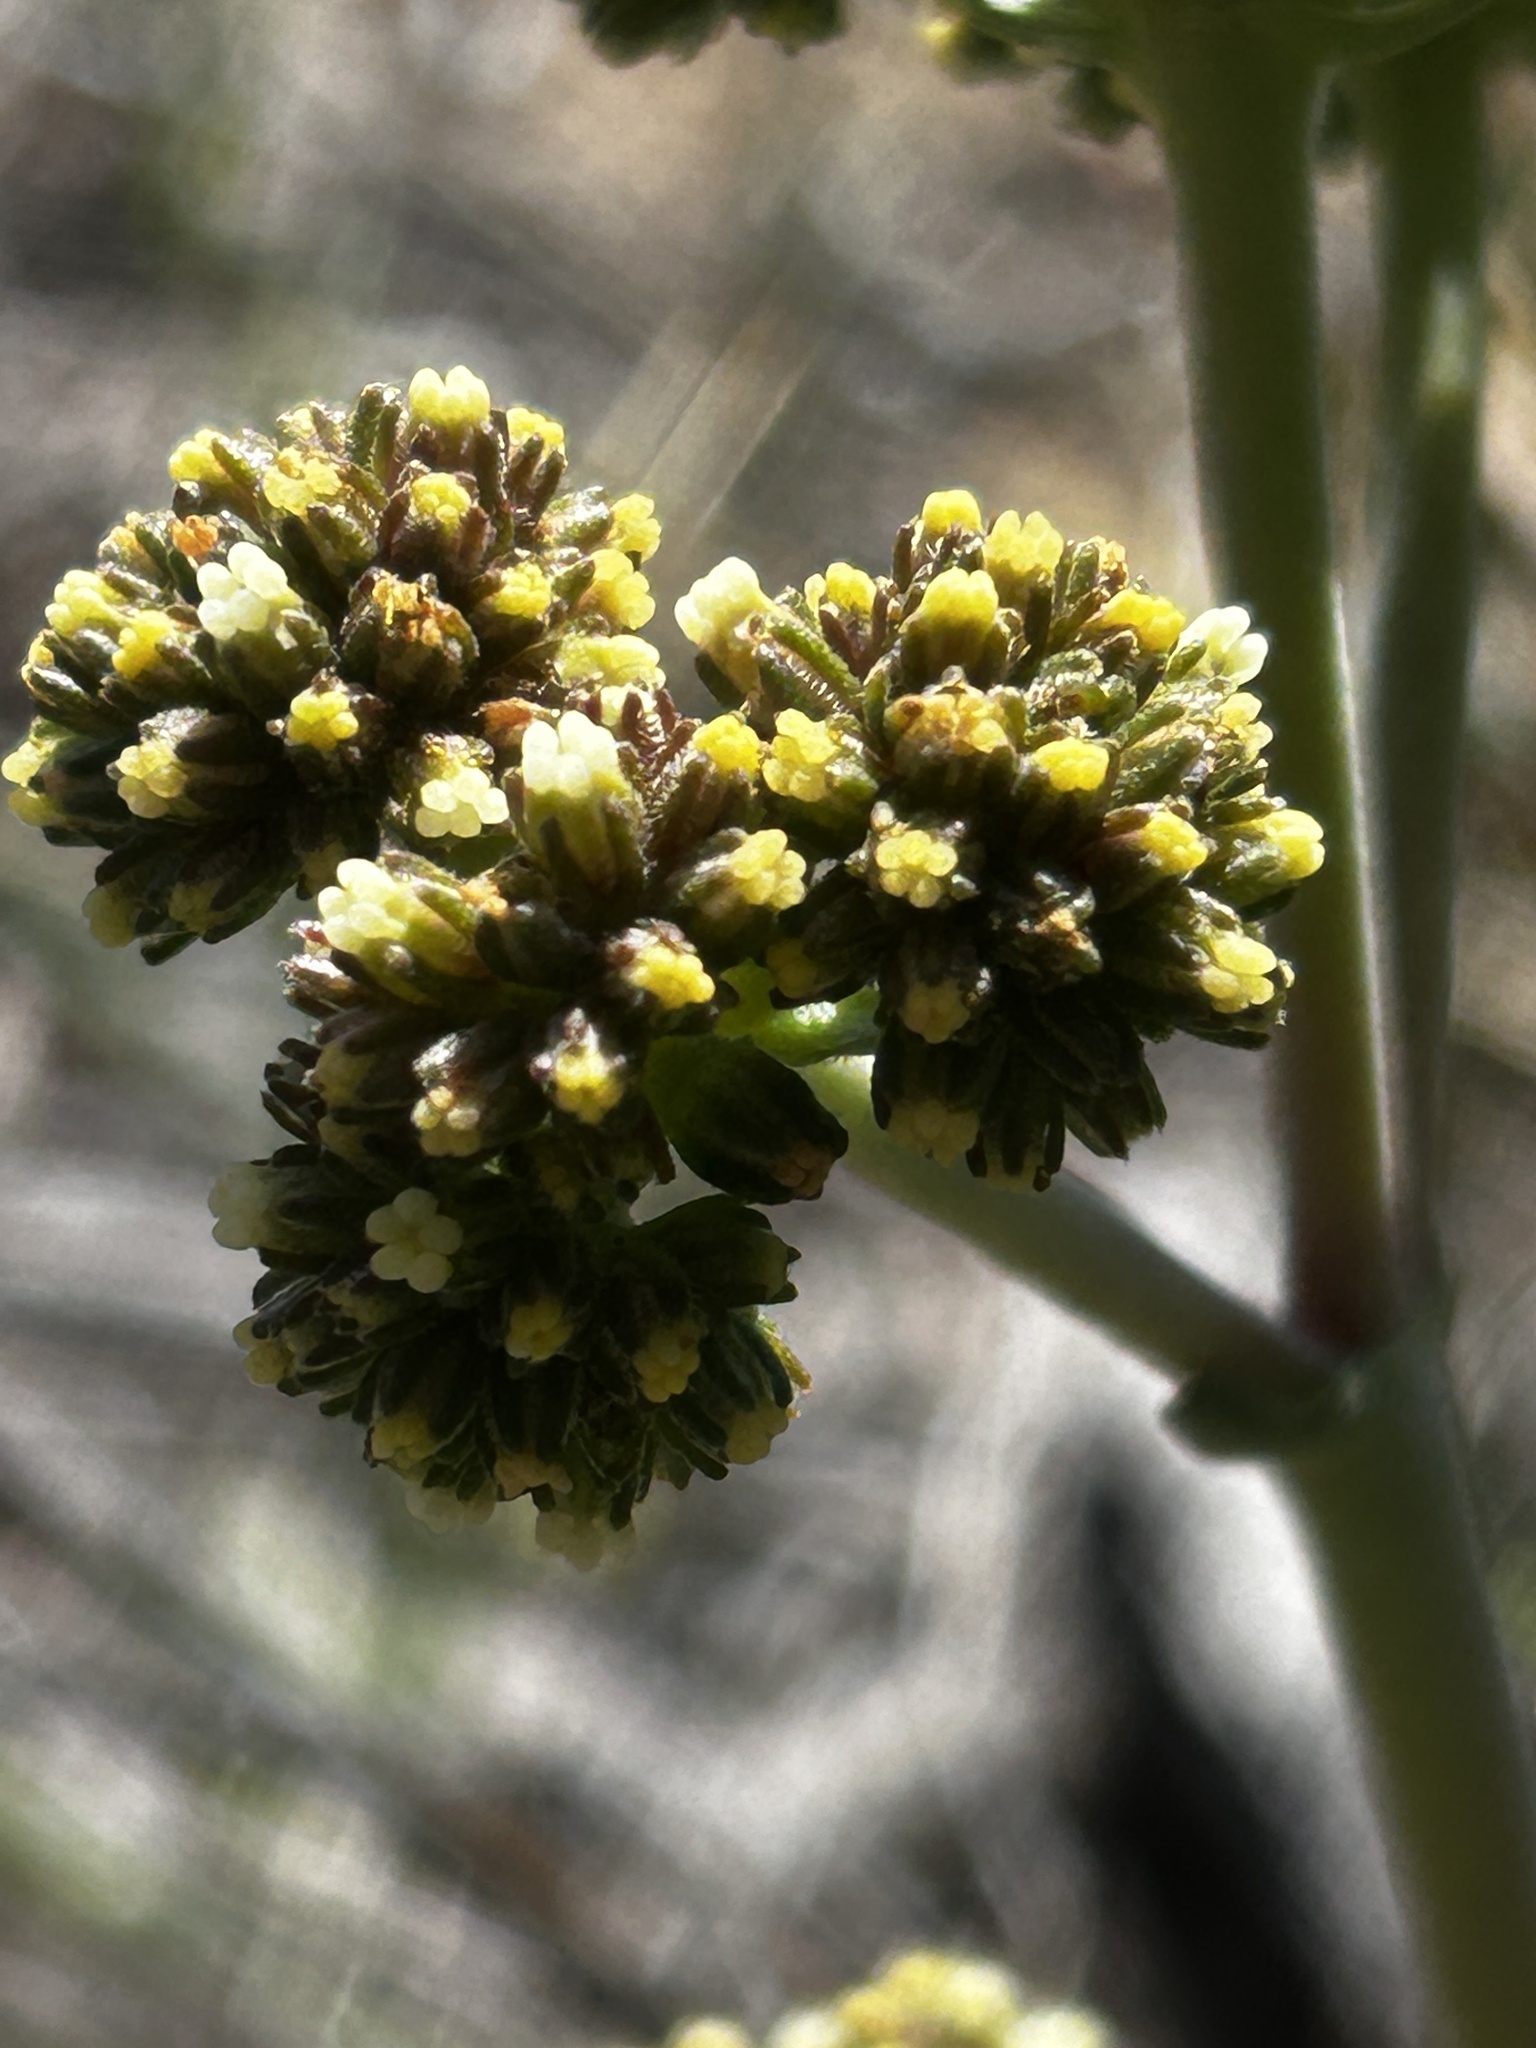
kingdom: Plantae
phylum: Tracheophyta
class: Magnoliopsida
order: Saxifragales
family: Crassulaceae
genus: Crassula
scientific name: Crassula nudicaulis
